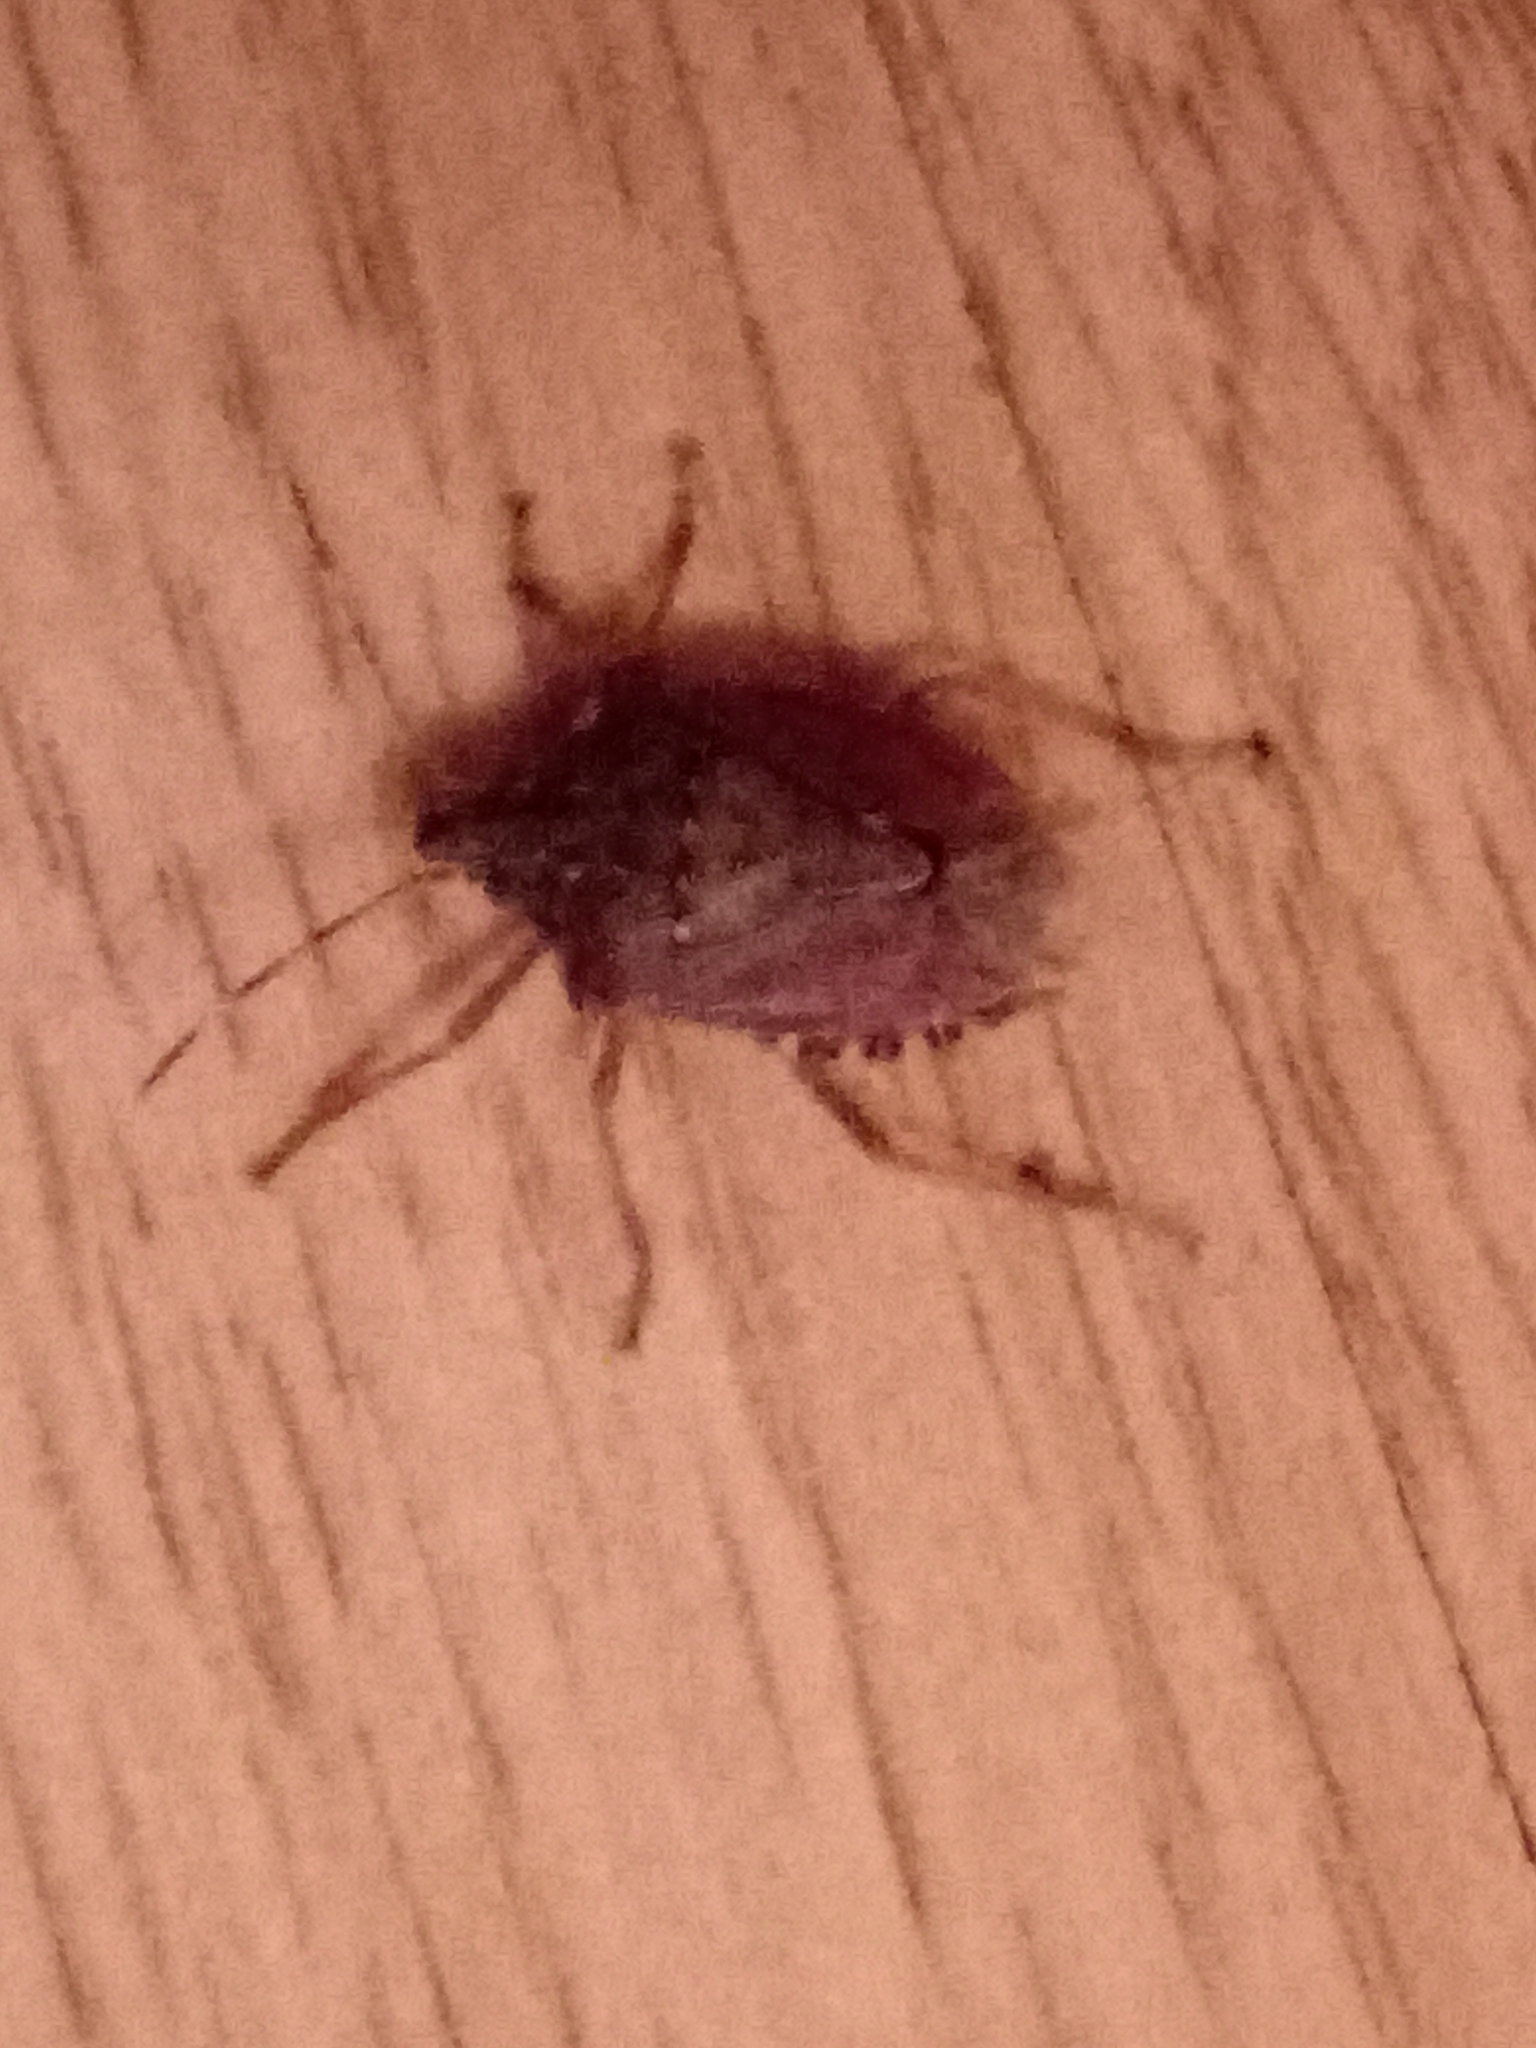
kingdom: Animalia
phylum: Arthropoda
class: Insecta
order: Hemiptera
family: Pentatomidae
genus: Halyomorpha
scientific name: Halyomorpha halys
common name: Brown marmorated stink bug
